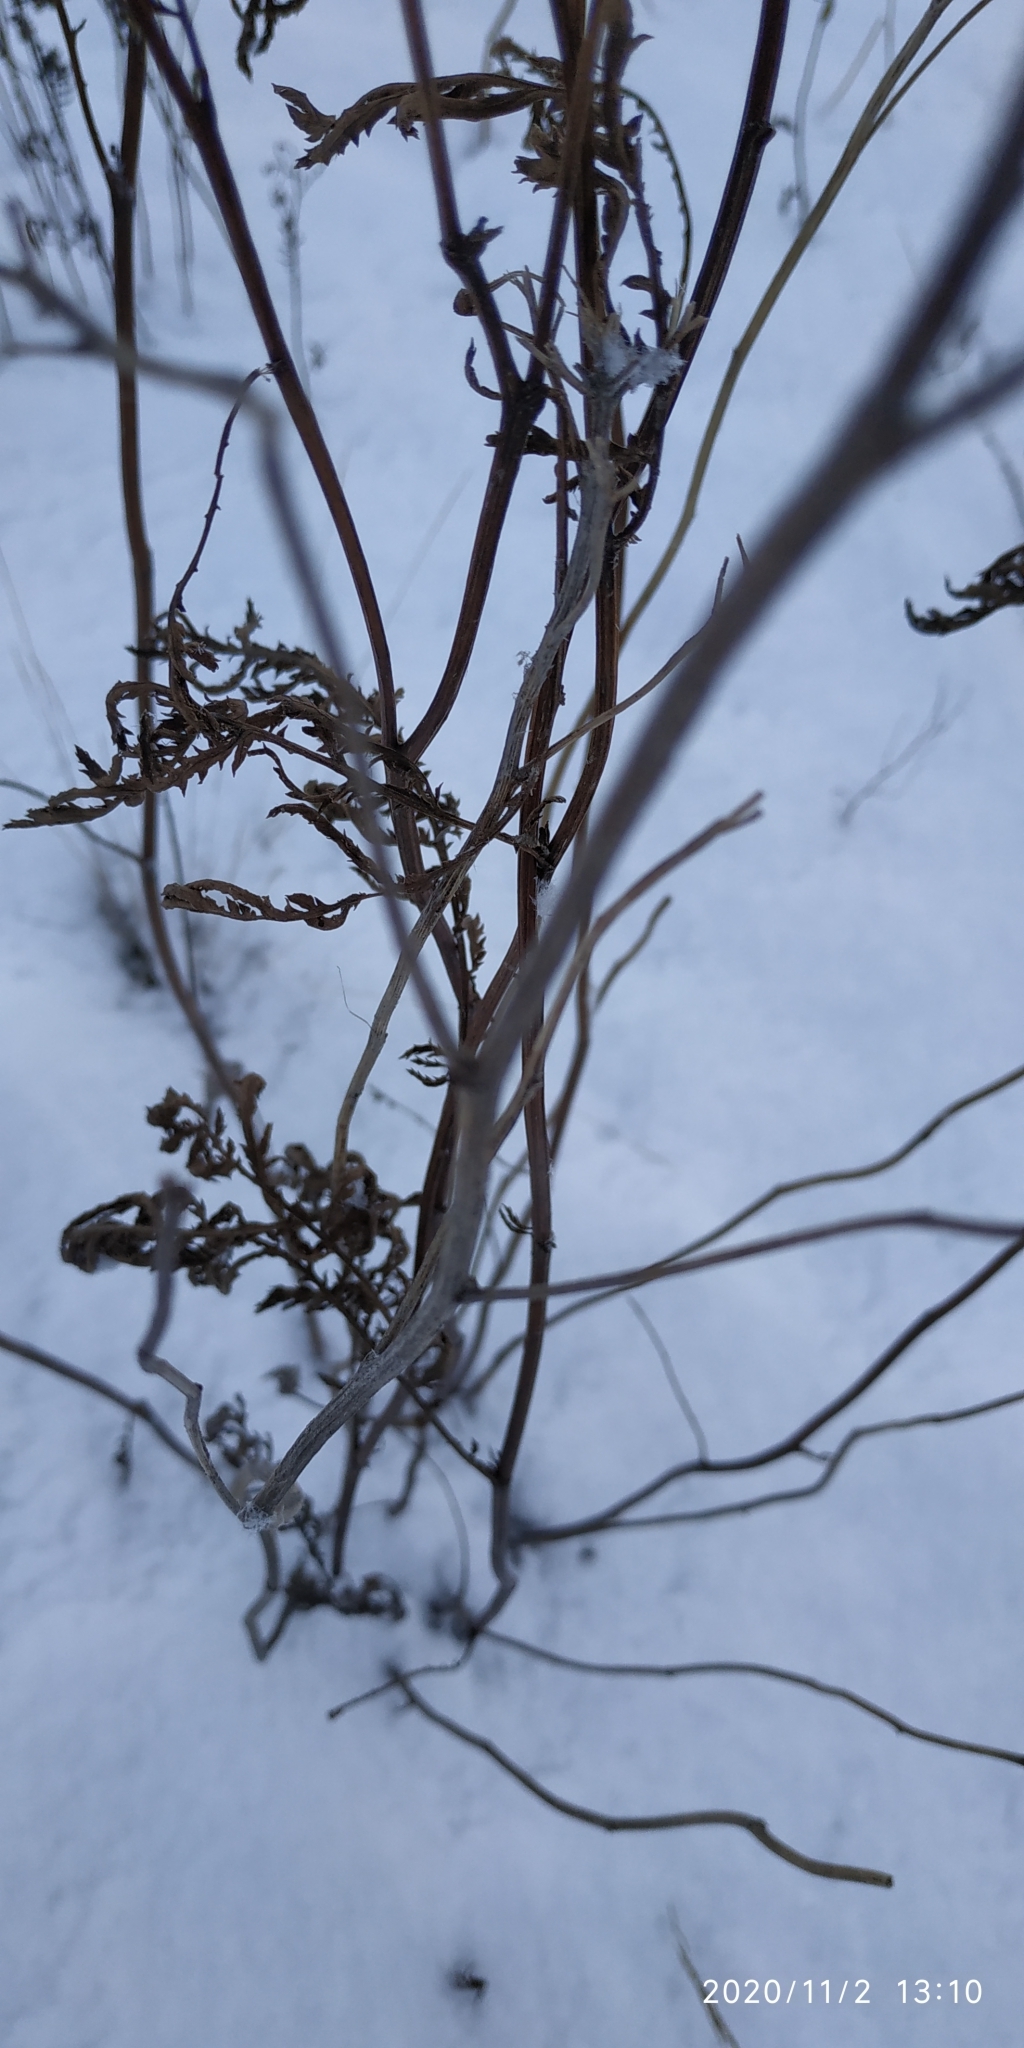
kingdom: Plantae
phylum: Tracheophyta
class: Magnoliopsida
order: Asterales
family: Asteraceae
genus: Tanacetum
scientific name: Tanacetum vulgare
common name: Common tansy
